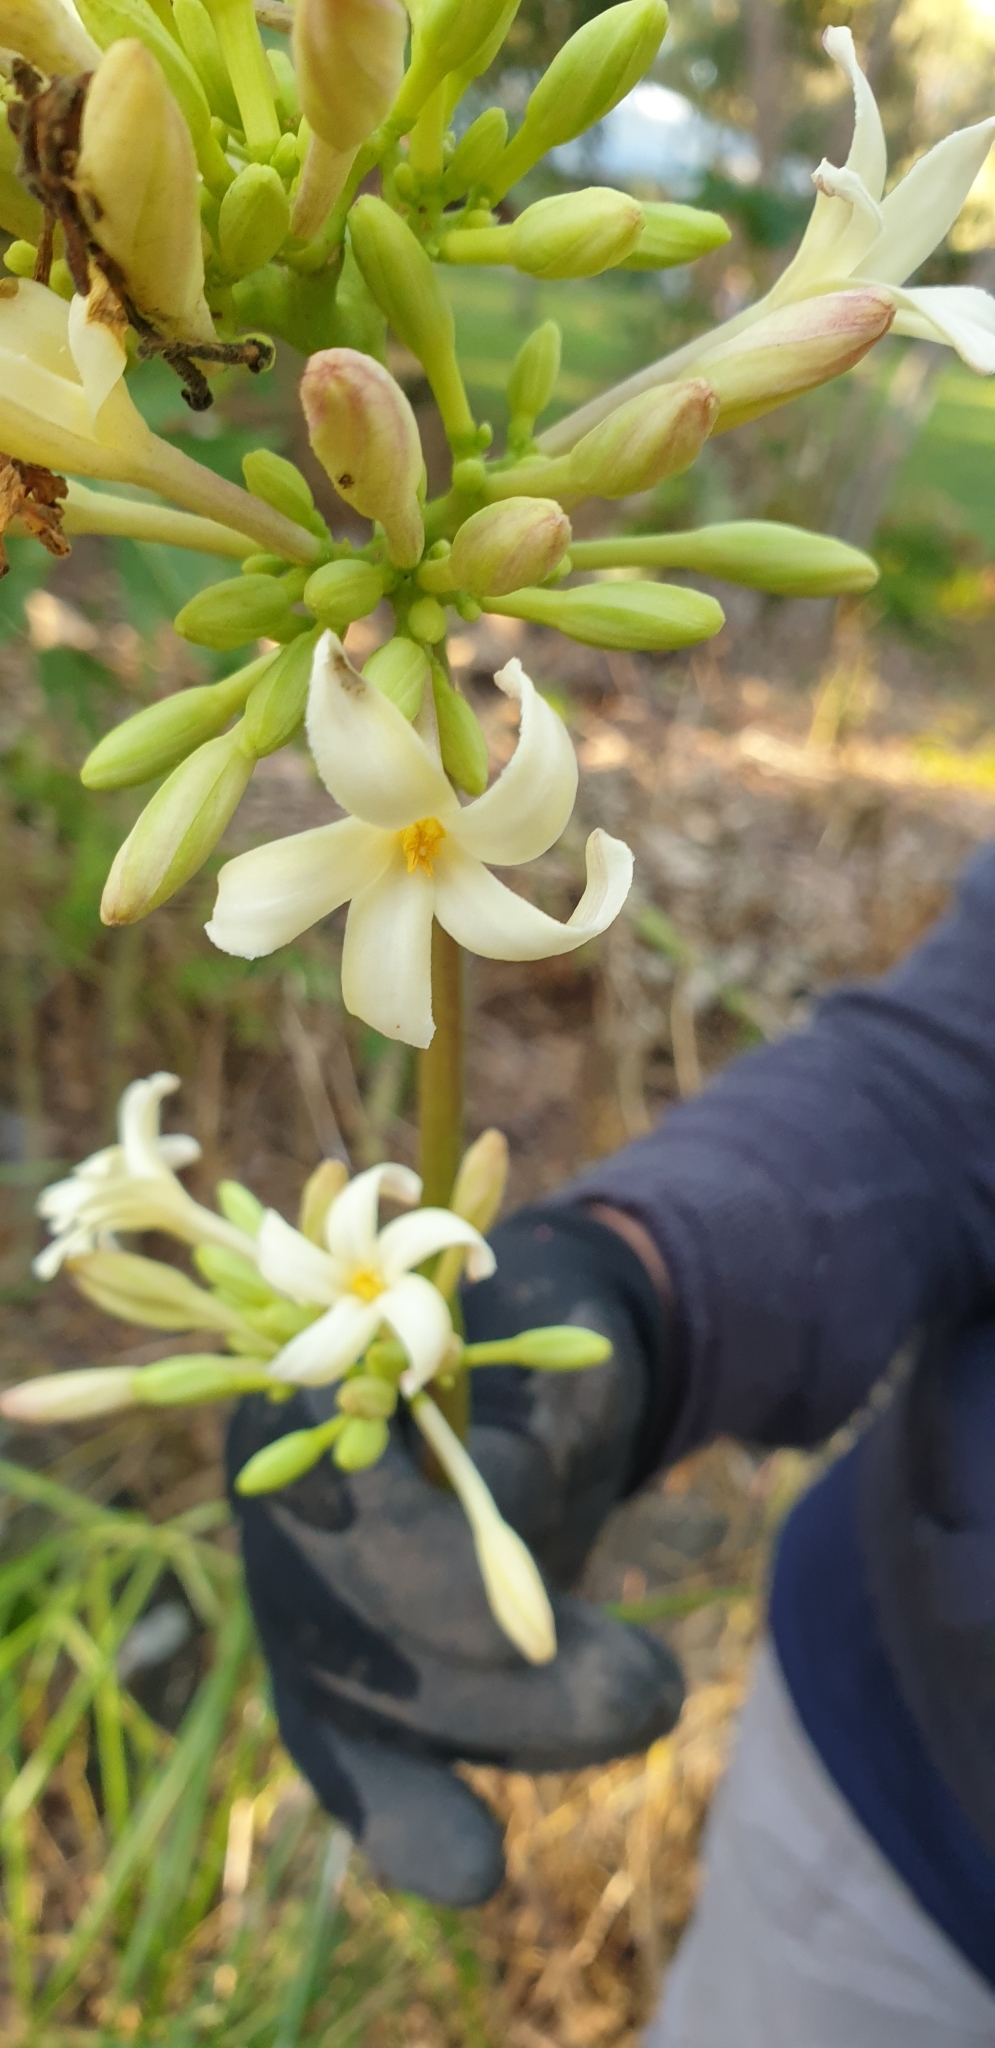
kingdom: Plantae
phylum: Tracheophyta
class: Magnoliopsida
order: Brassicales
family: Caricaceae
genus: Carica
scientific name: Carica papaya
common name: Papaya
